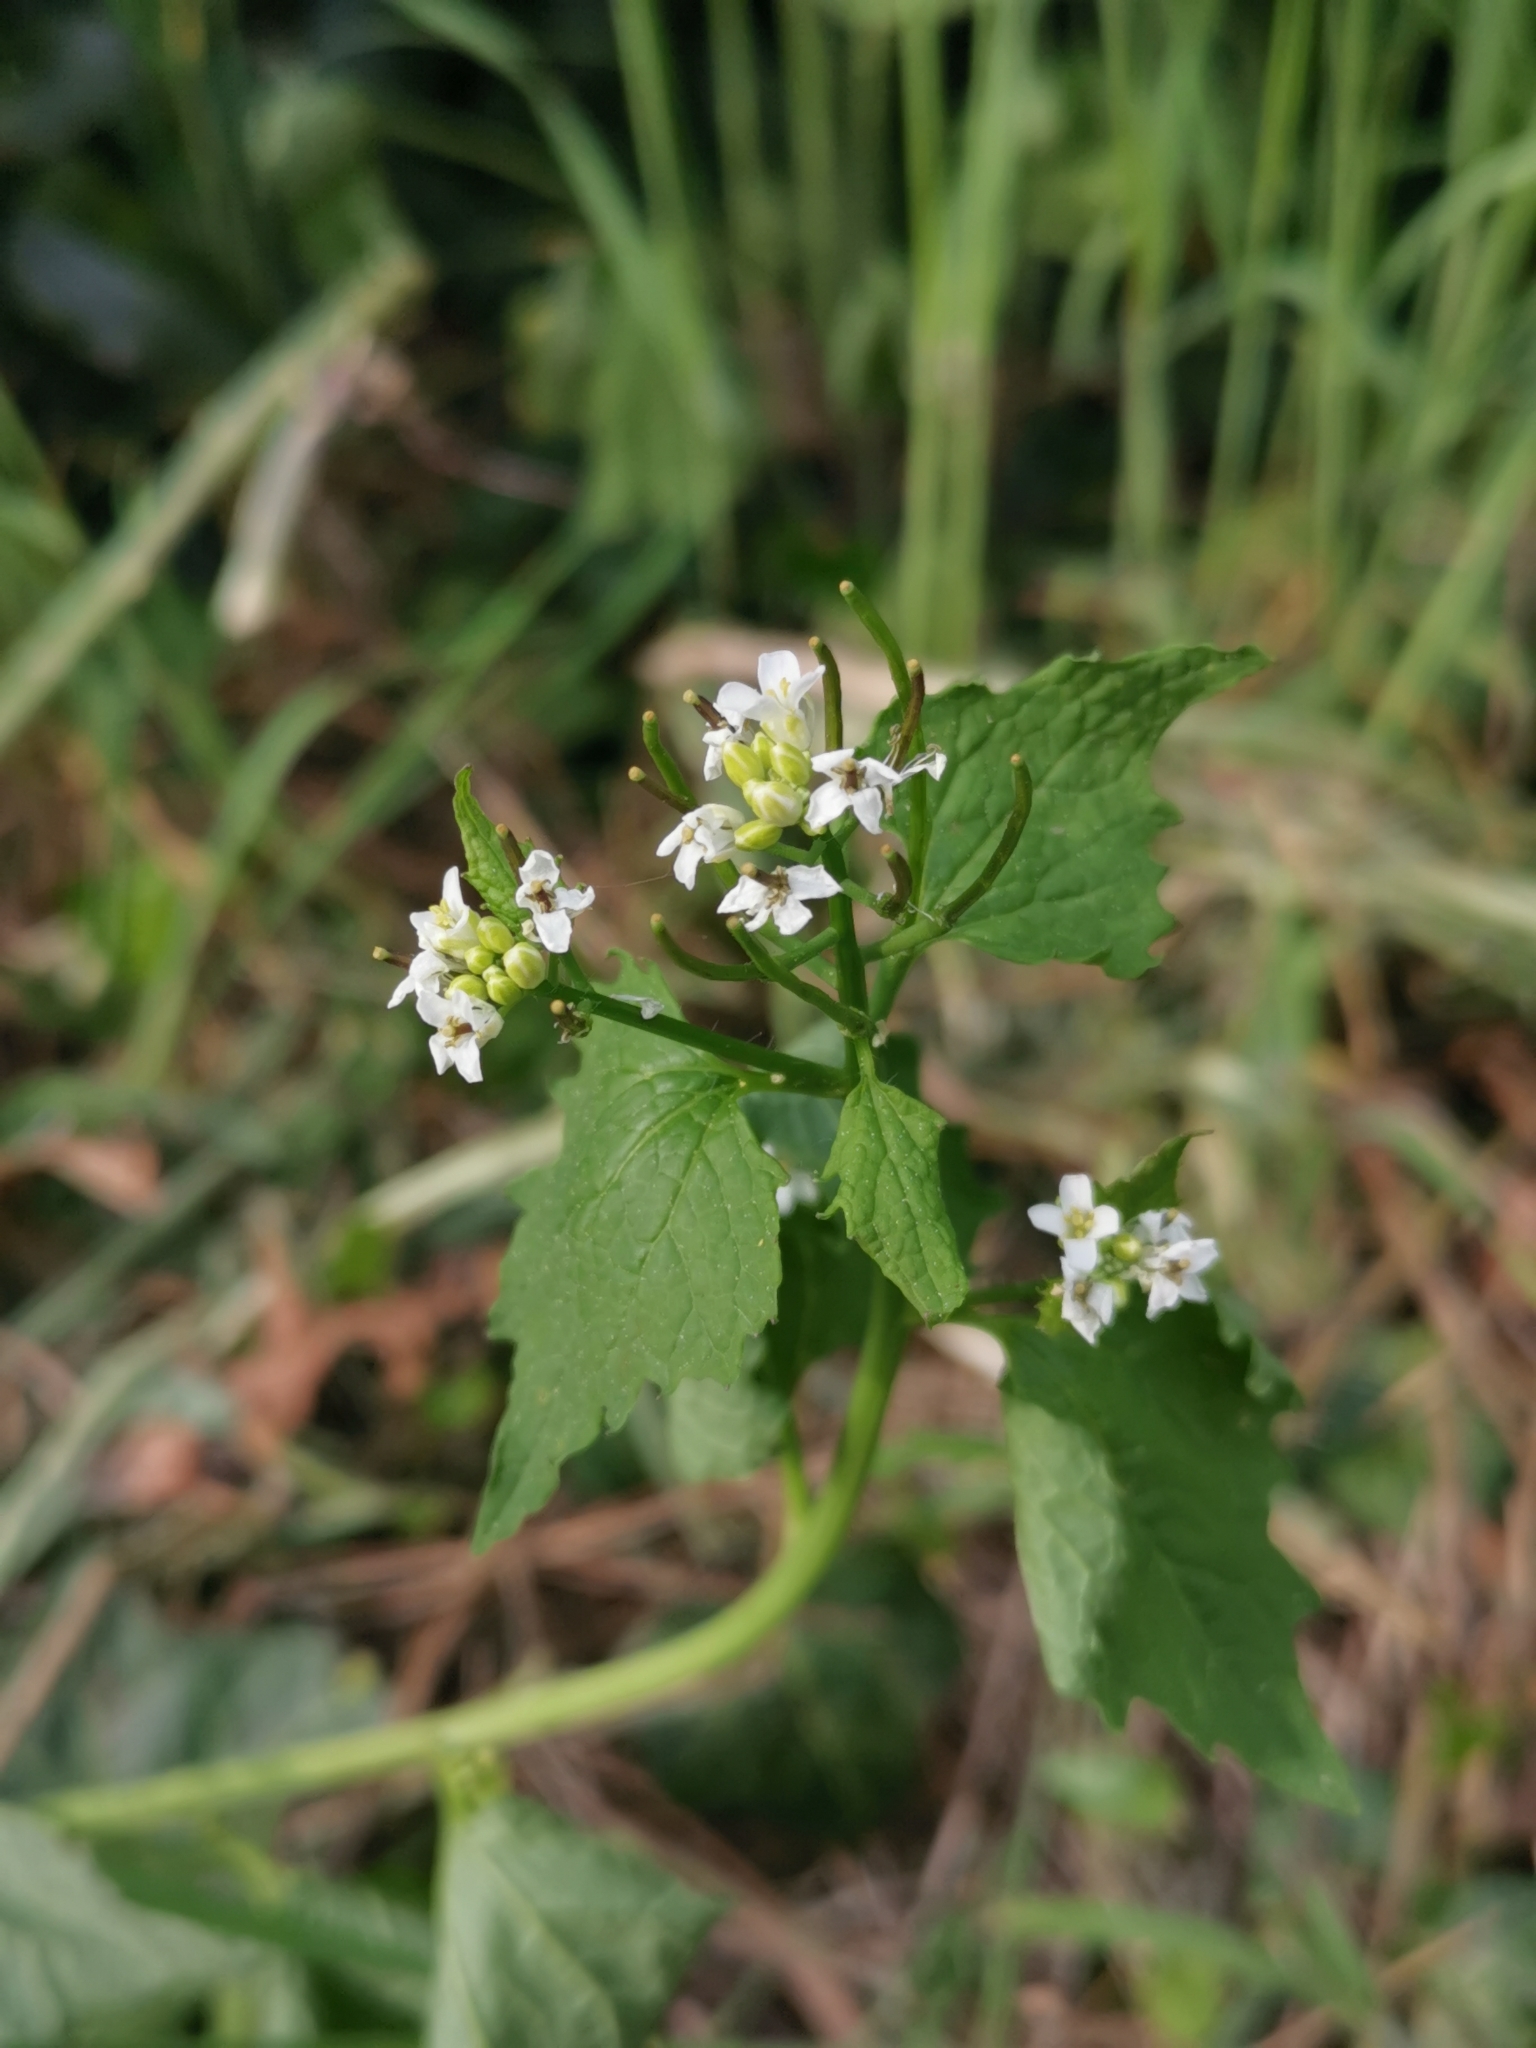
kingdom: Plantae
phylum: Tracheophyta
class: Magnoliopsida
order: Brassicales
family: Brassicaceae
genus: Alliaria
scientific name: Alliaria petiolata
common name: Garlic mustard
